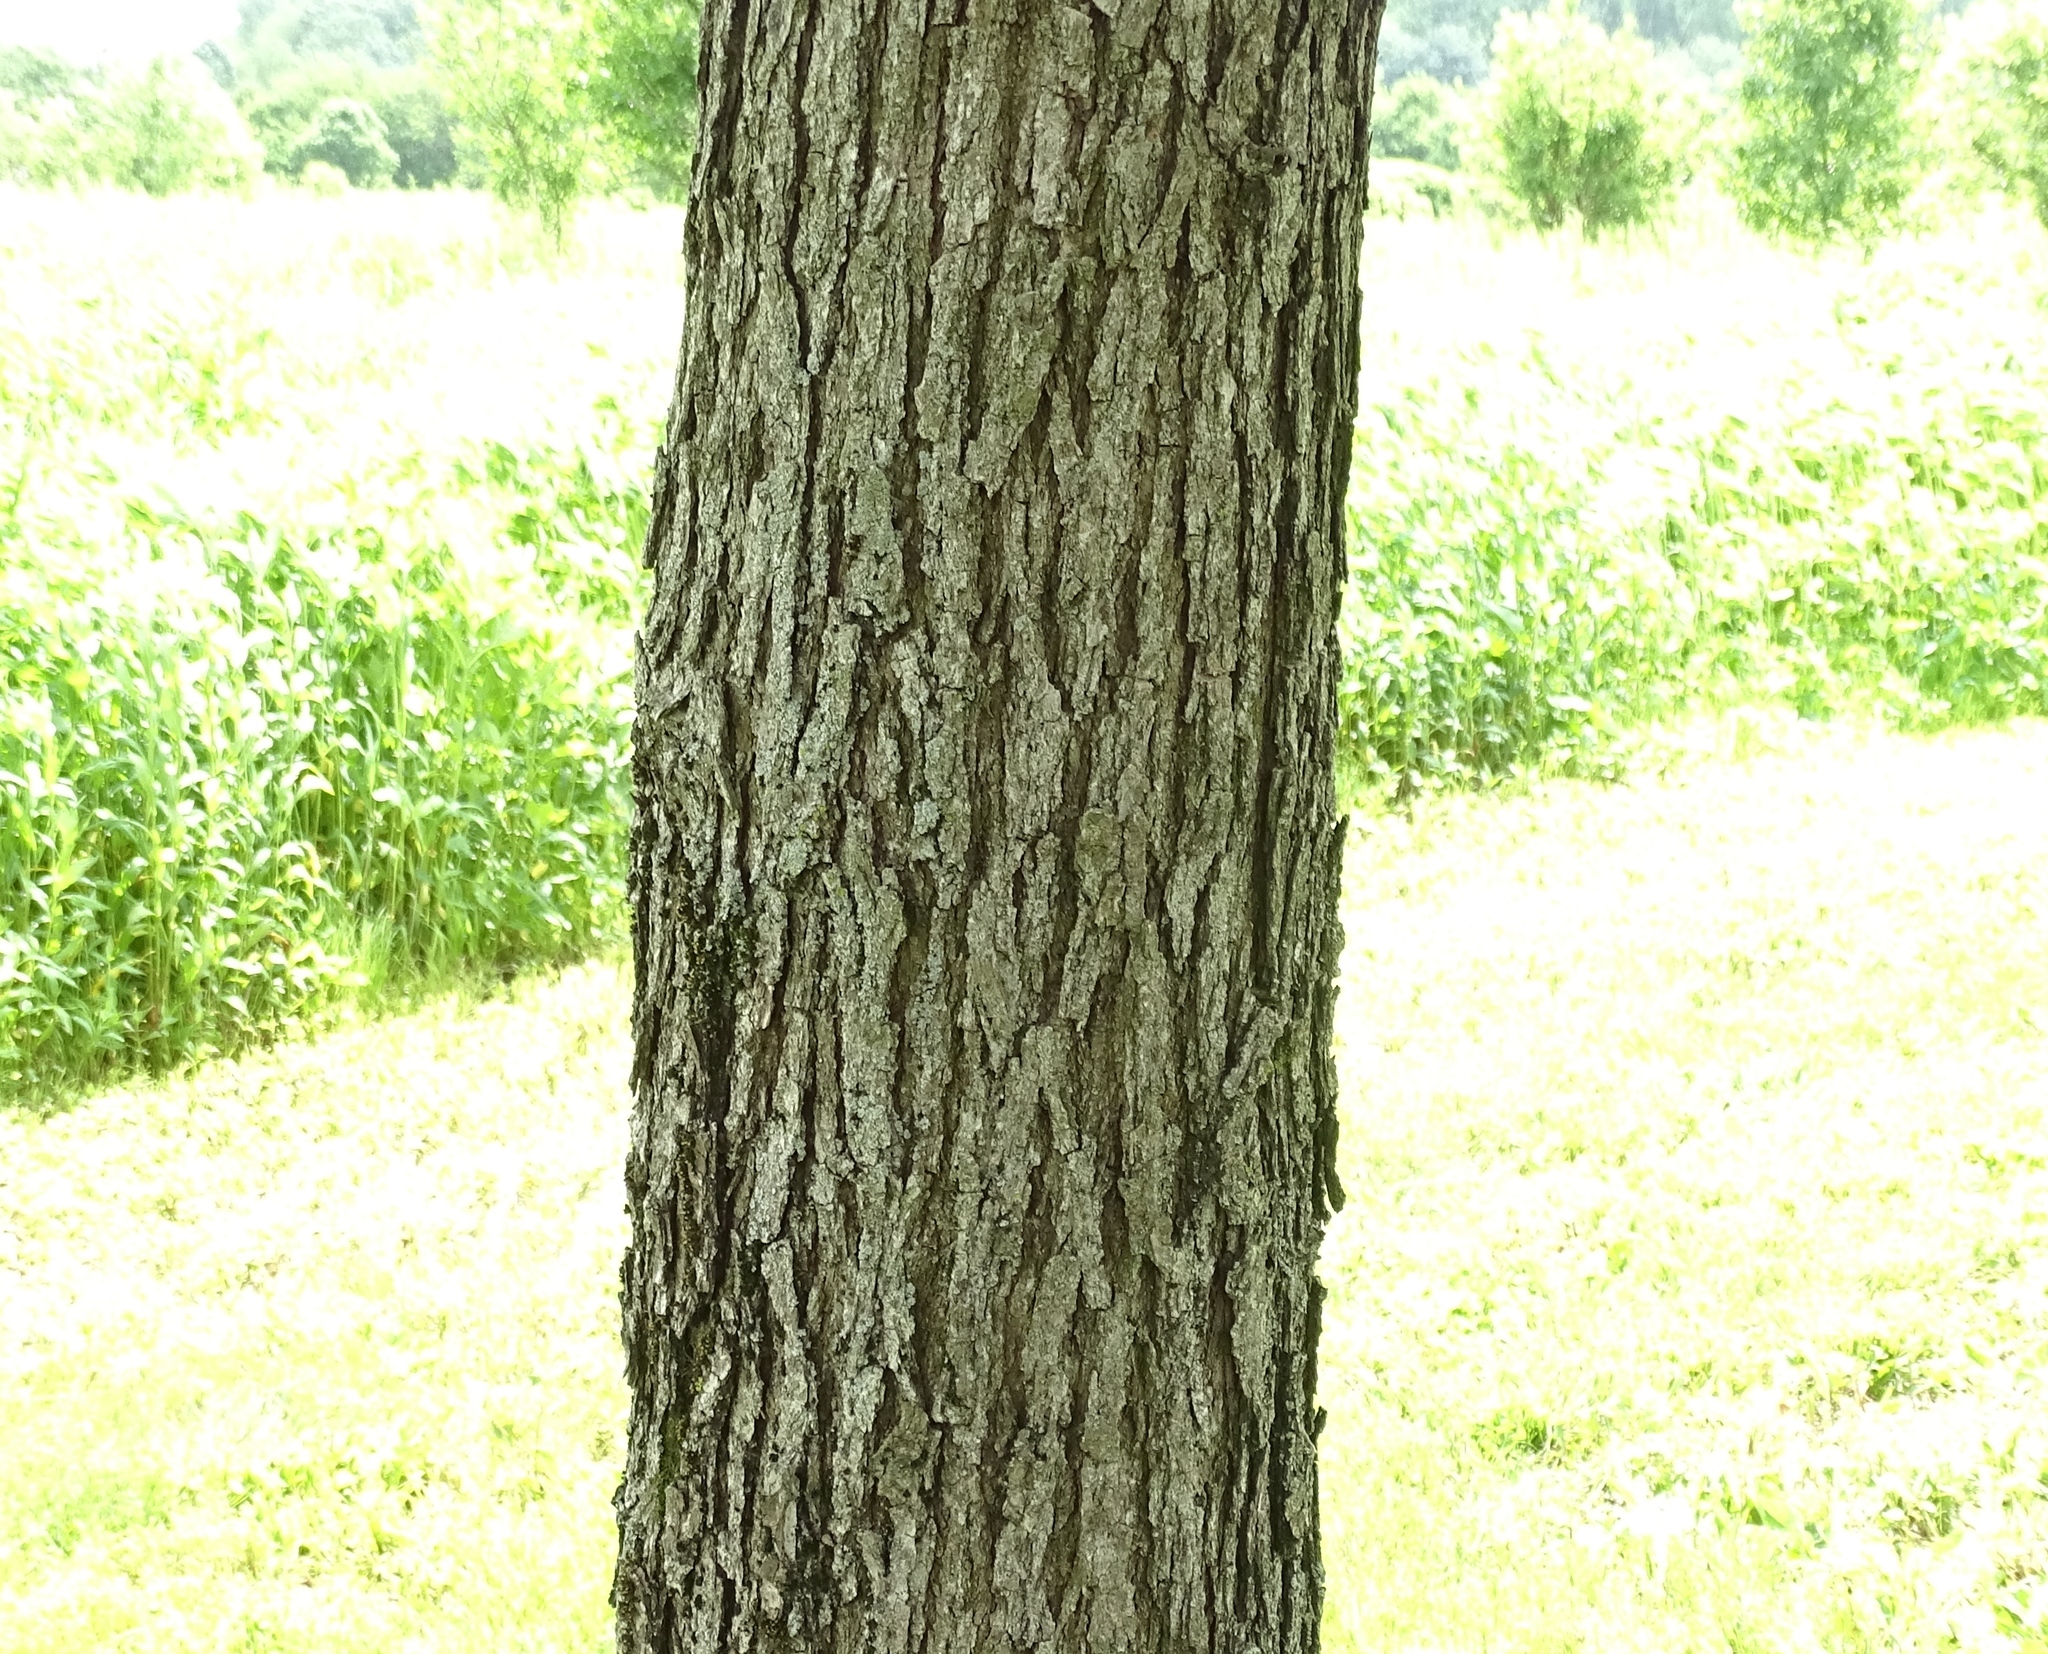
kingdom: Plantae
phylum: Tracheophyta
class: Magnoliopsida
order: Fagales
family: Fagaceae
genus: Quercus
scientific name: Quercus bicolor
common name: Swamp white oak
